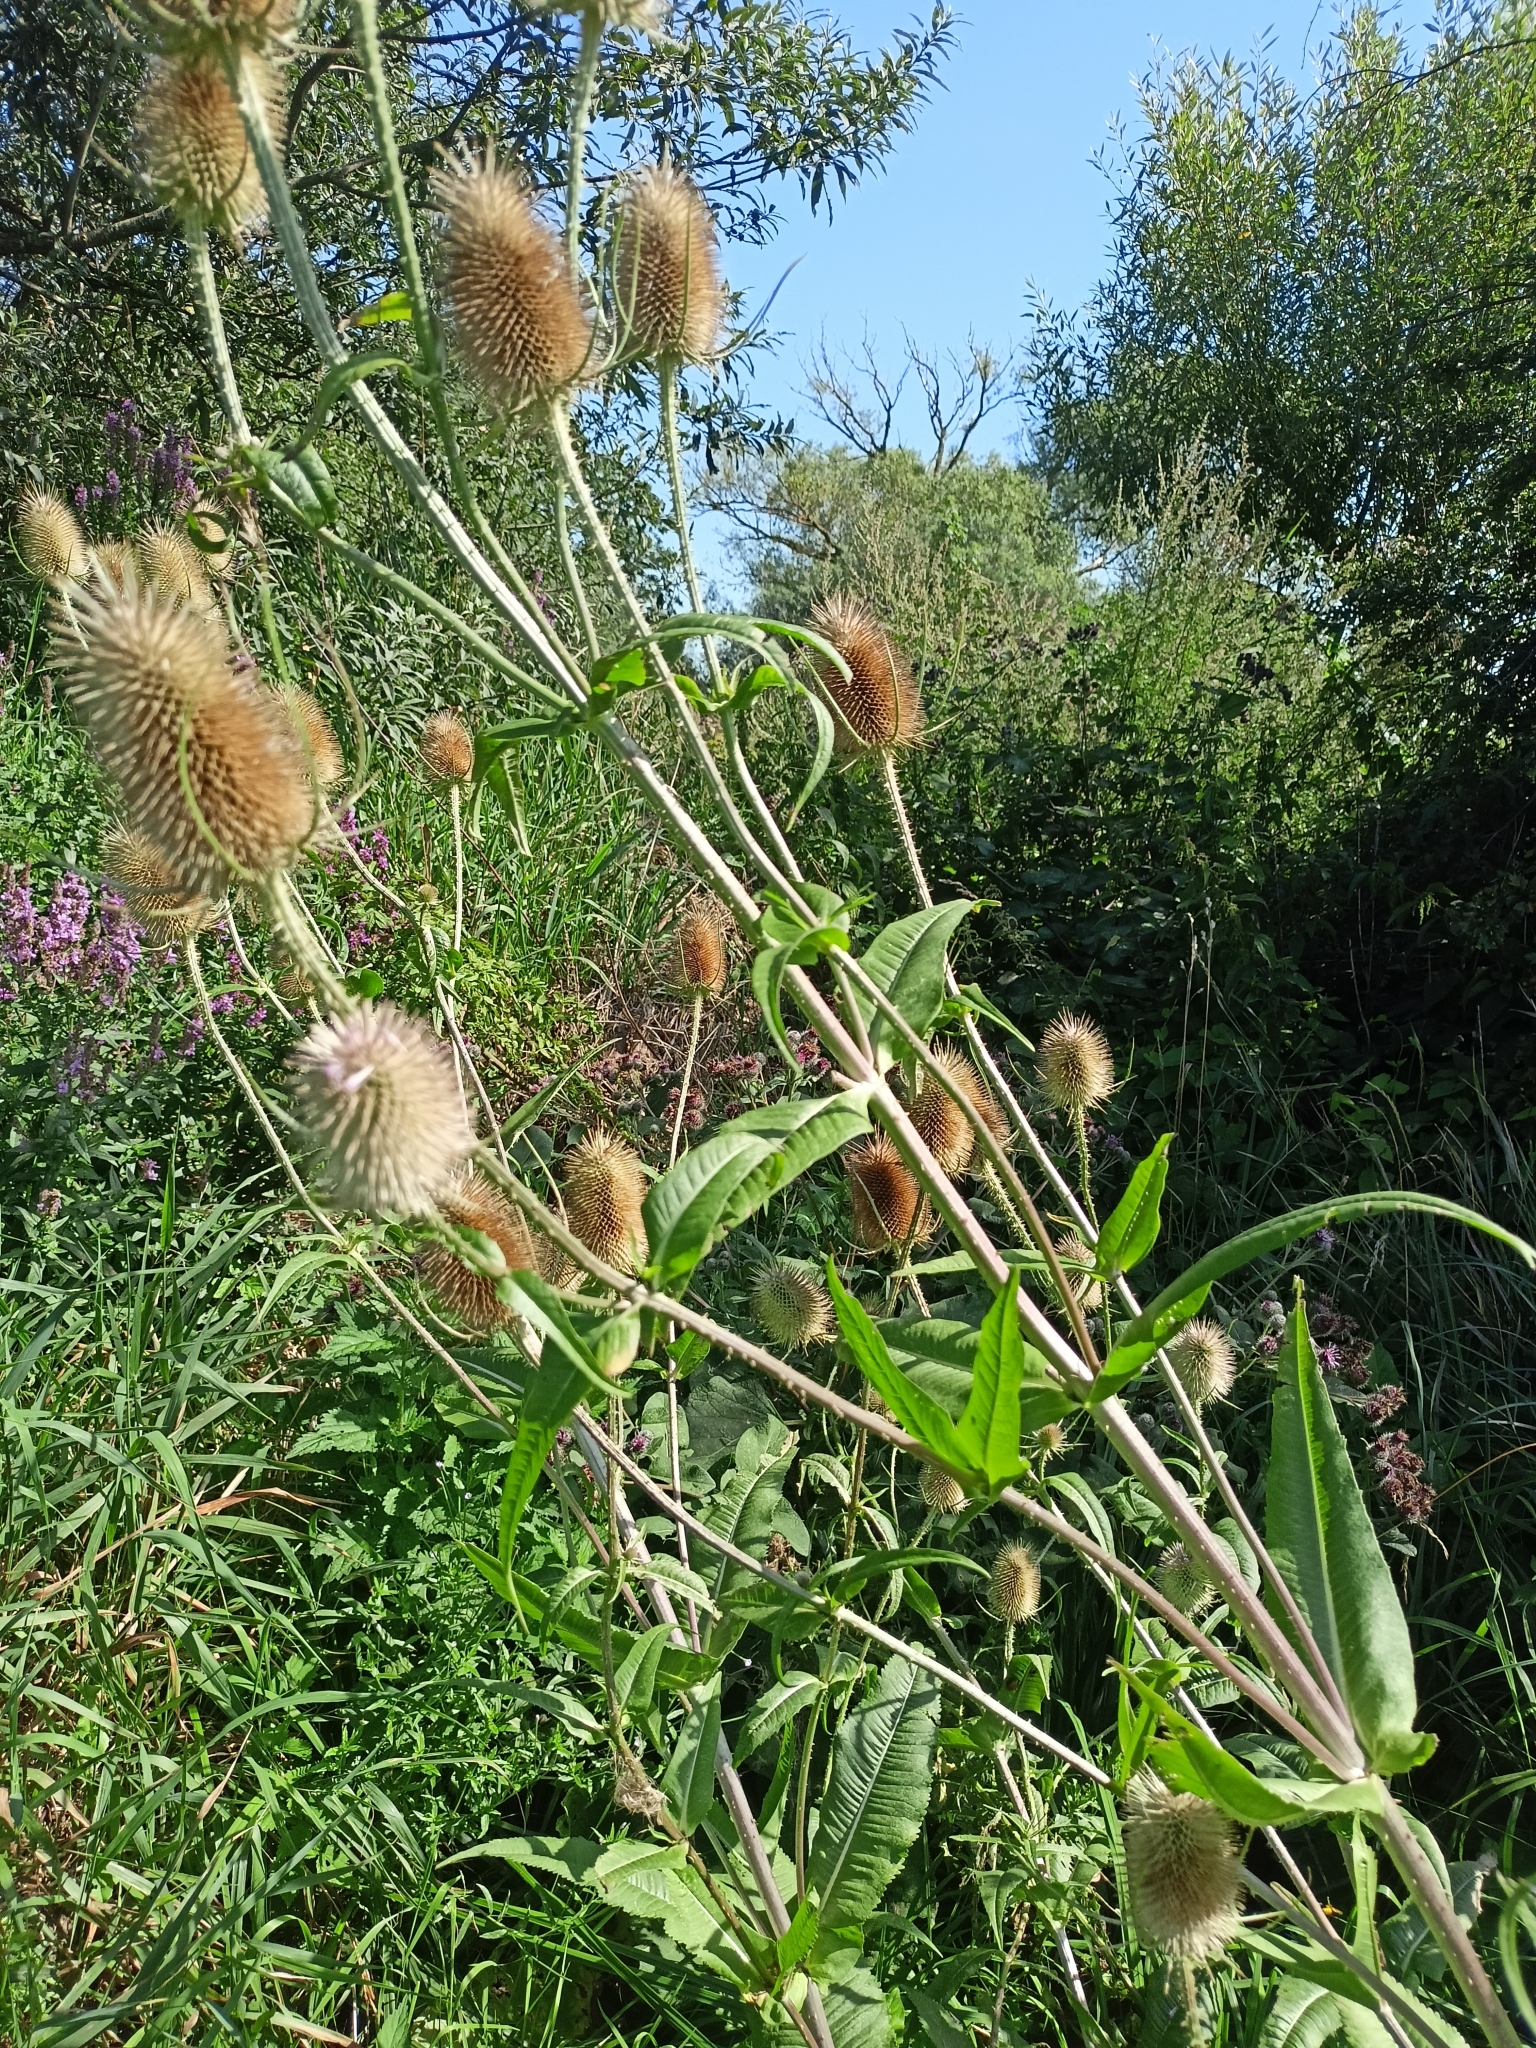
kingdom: Plantae
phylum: Tracheophyta
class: Magnoliopsida
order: Dipsacales
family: Caprifoliaceae
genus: Dipsacus
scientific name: Dipsacus fullonum
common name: Teasel
